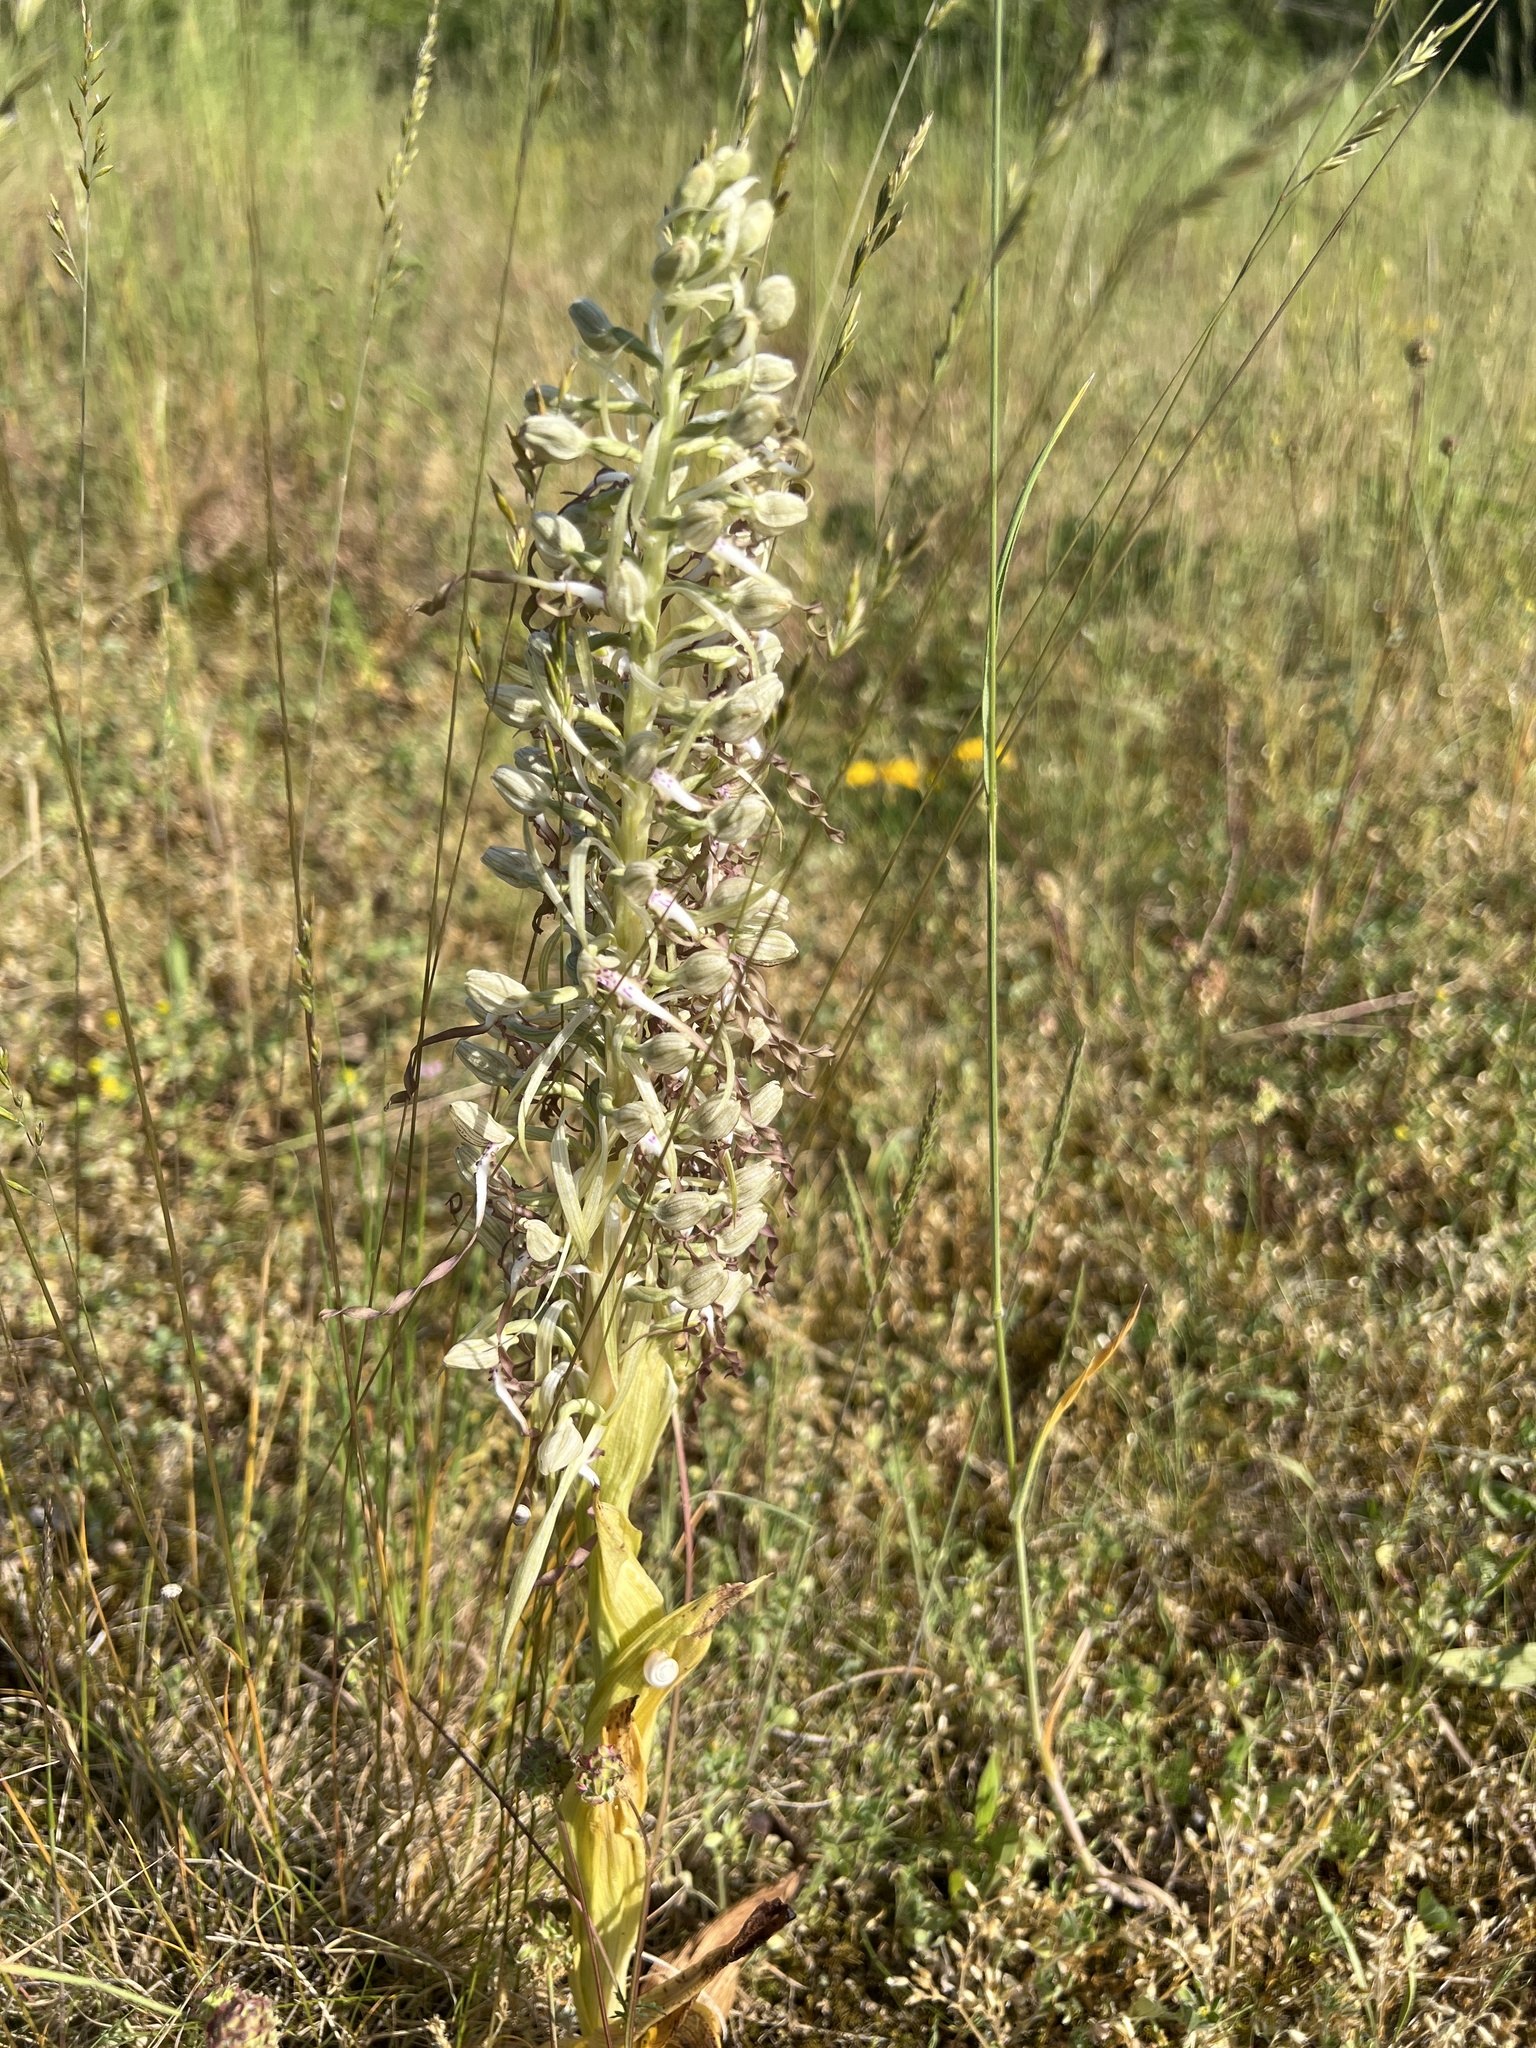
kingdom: Plantae
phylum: Tracheophyta
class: Liliopsida
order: Asparagales
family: Orchidaceae
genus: Himantoglossum
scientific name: Himantoglossum hircinum
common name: Lizard orchid
